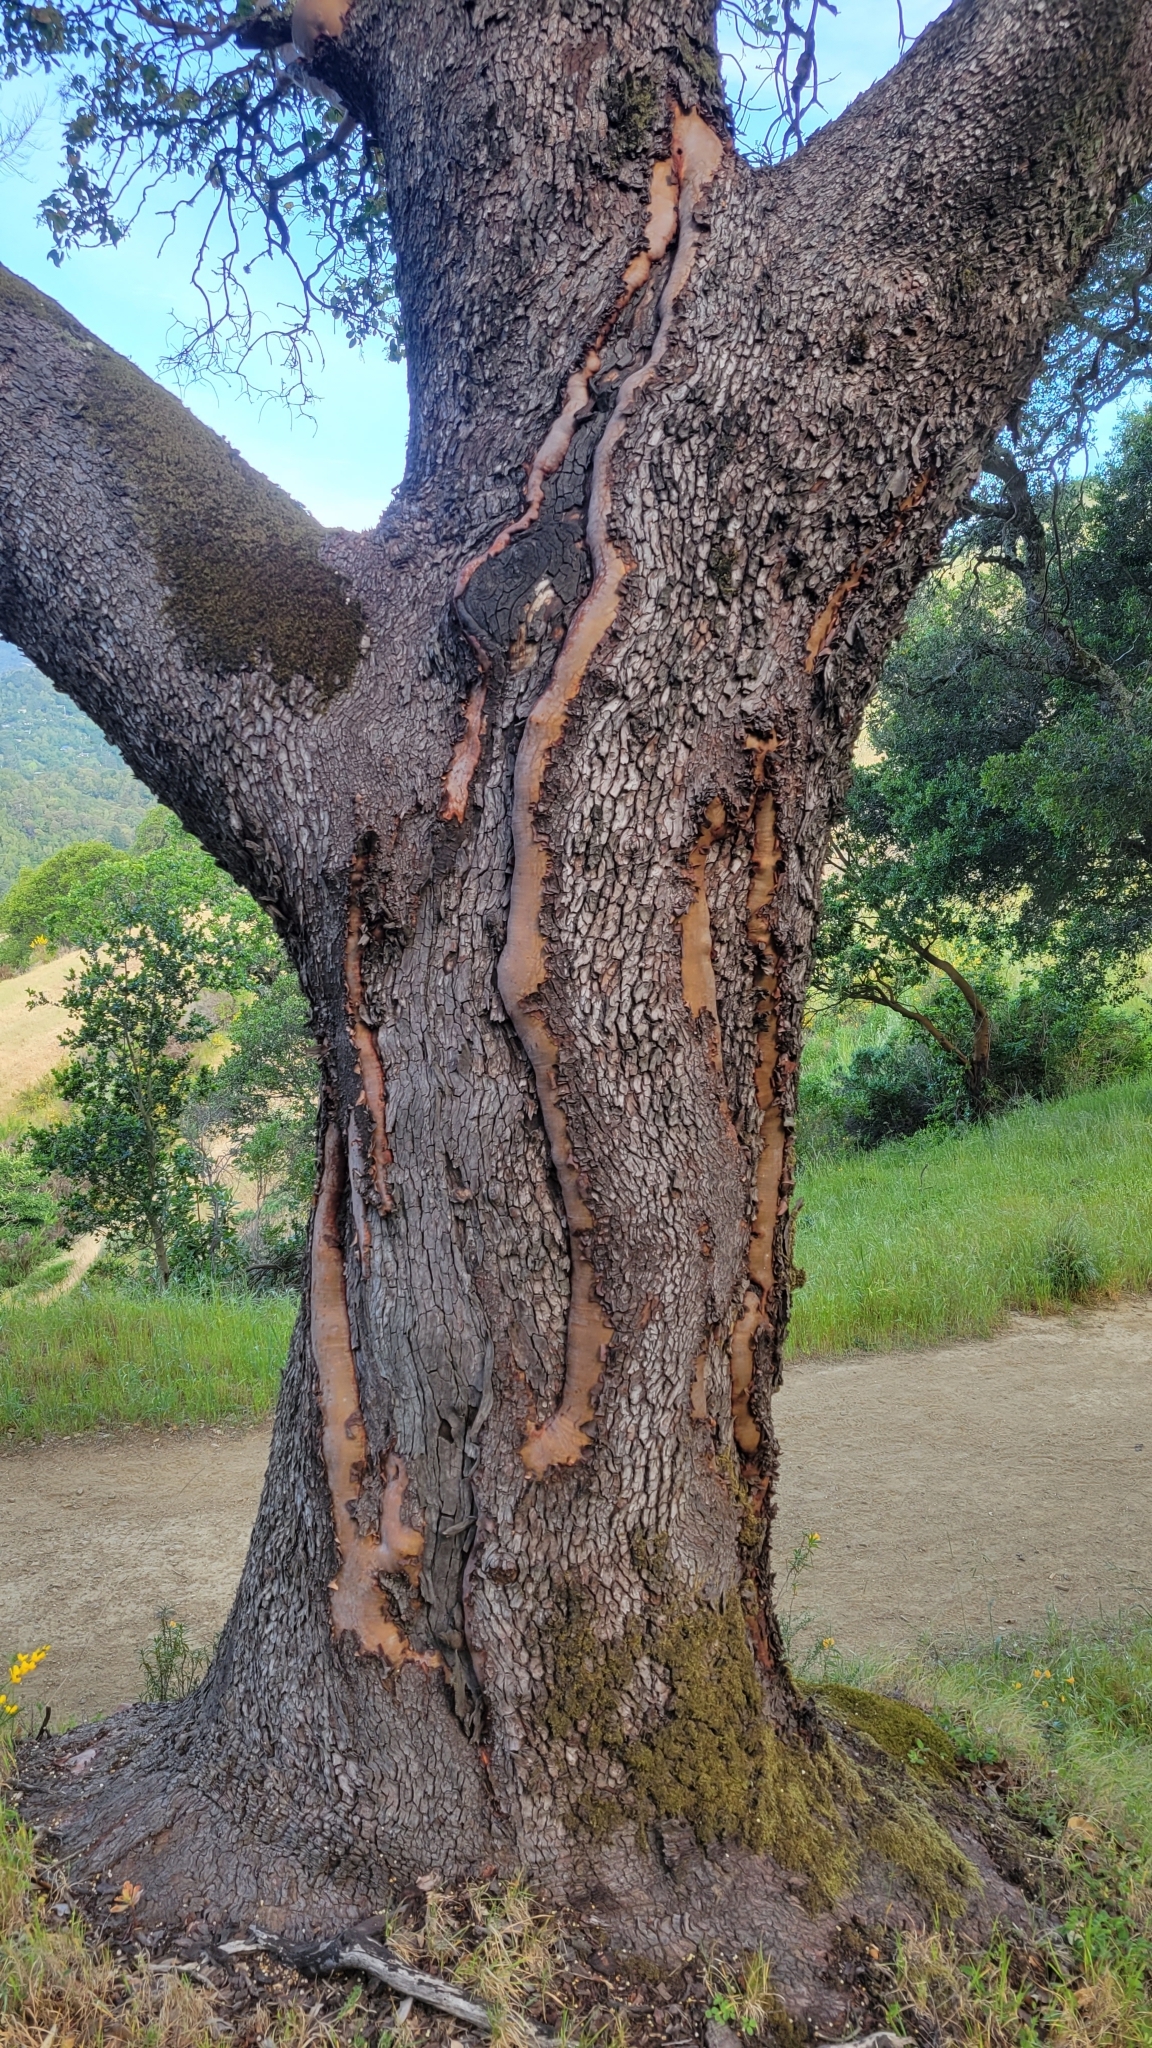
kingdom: Plantae
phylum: Tracheophyta
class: Magnoliopsida
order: Ericales
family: Ericaceae
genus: Arbutus
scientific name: Arbutus menziesii
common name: Pacific madrone
